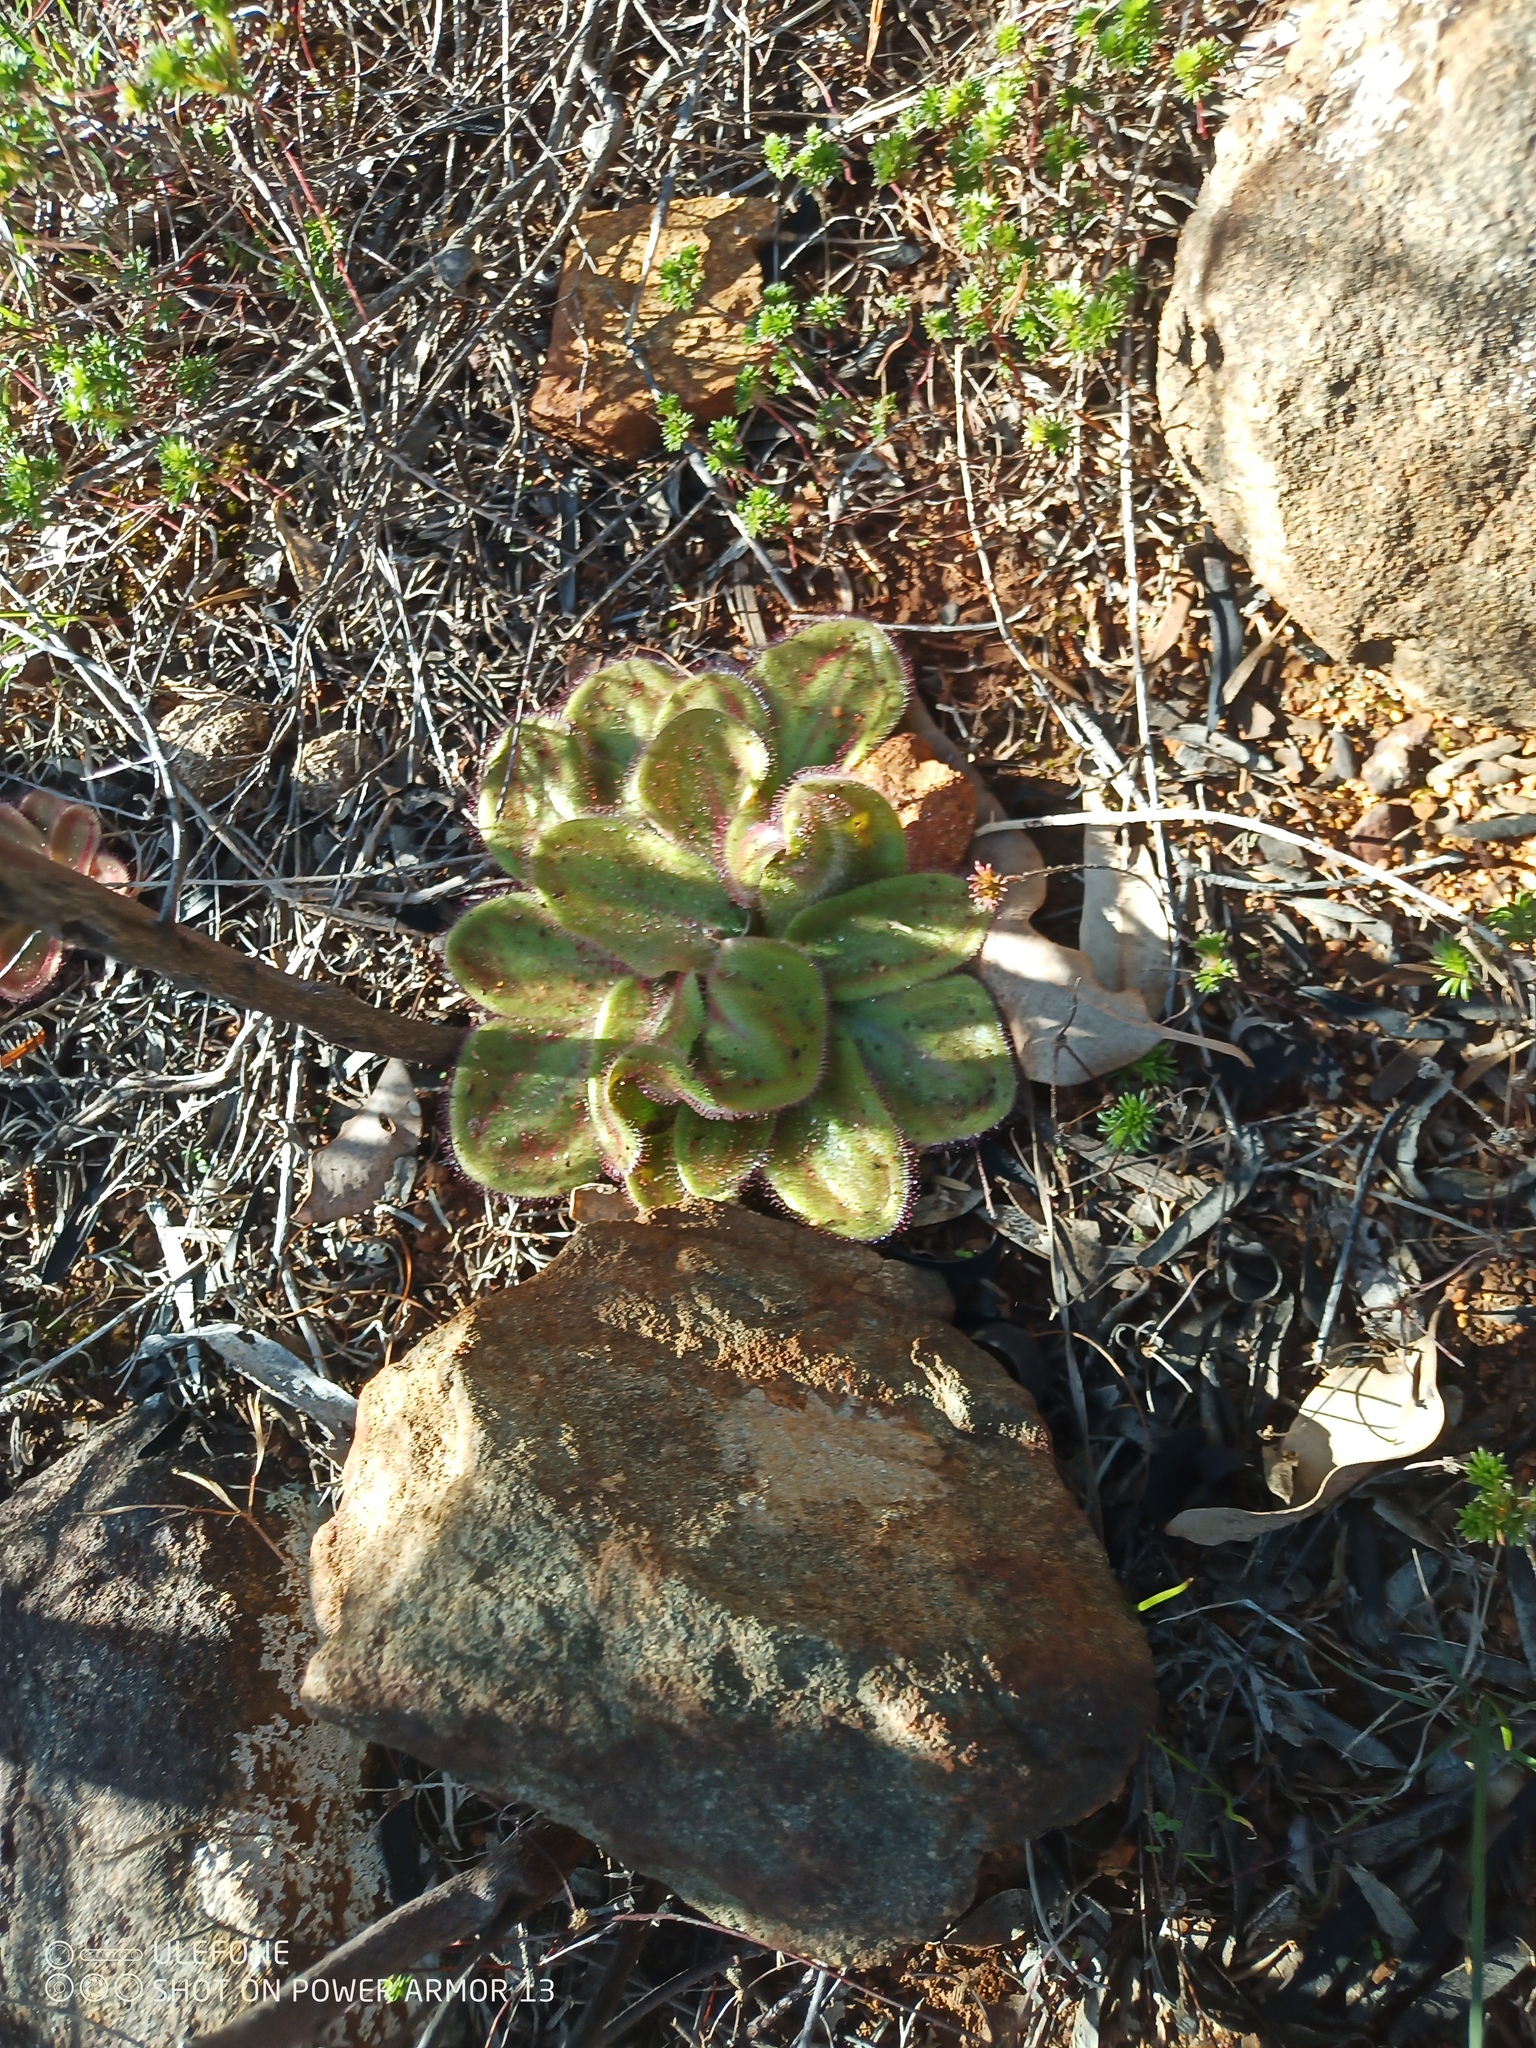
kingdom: Plantae
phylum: Tracheophyta
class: Magnoliopsida
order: Caryophyllales
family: Droseraceae
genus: Drosera
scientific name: Drosera erythrorhiza
